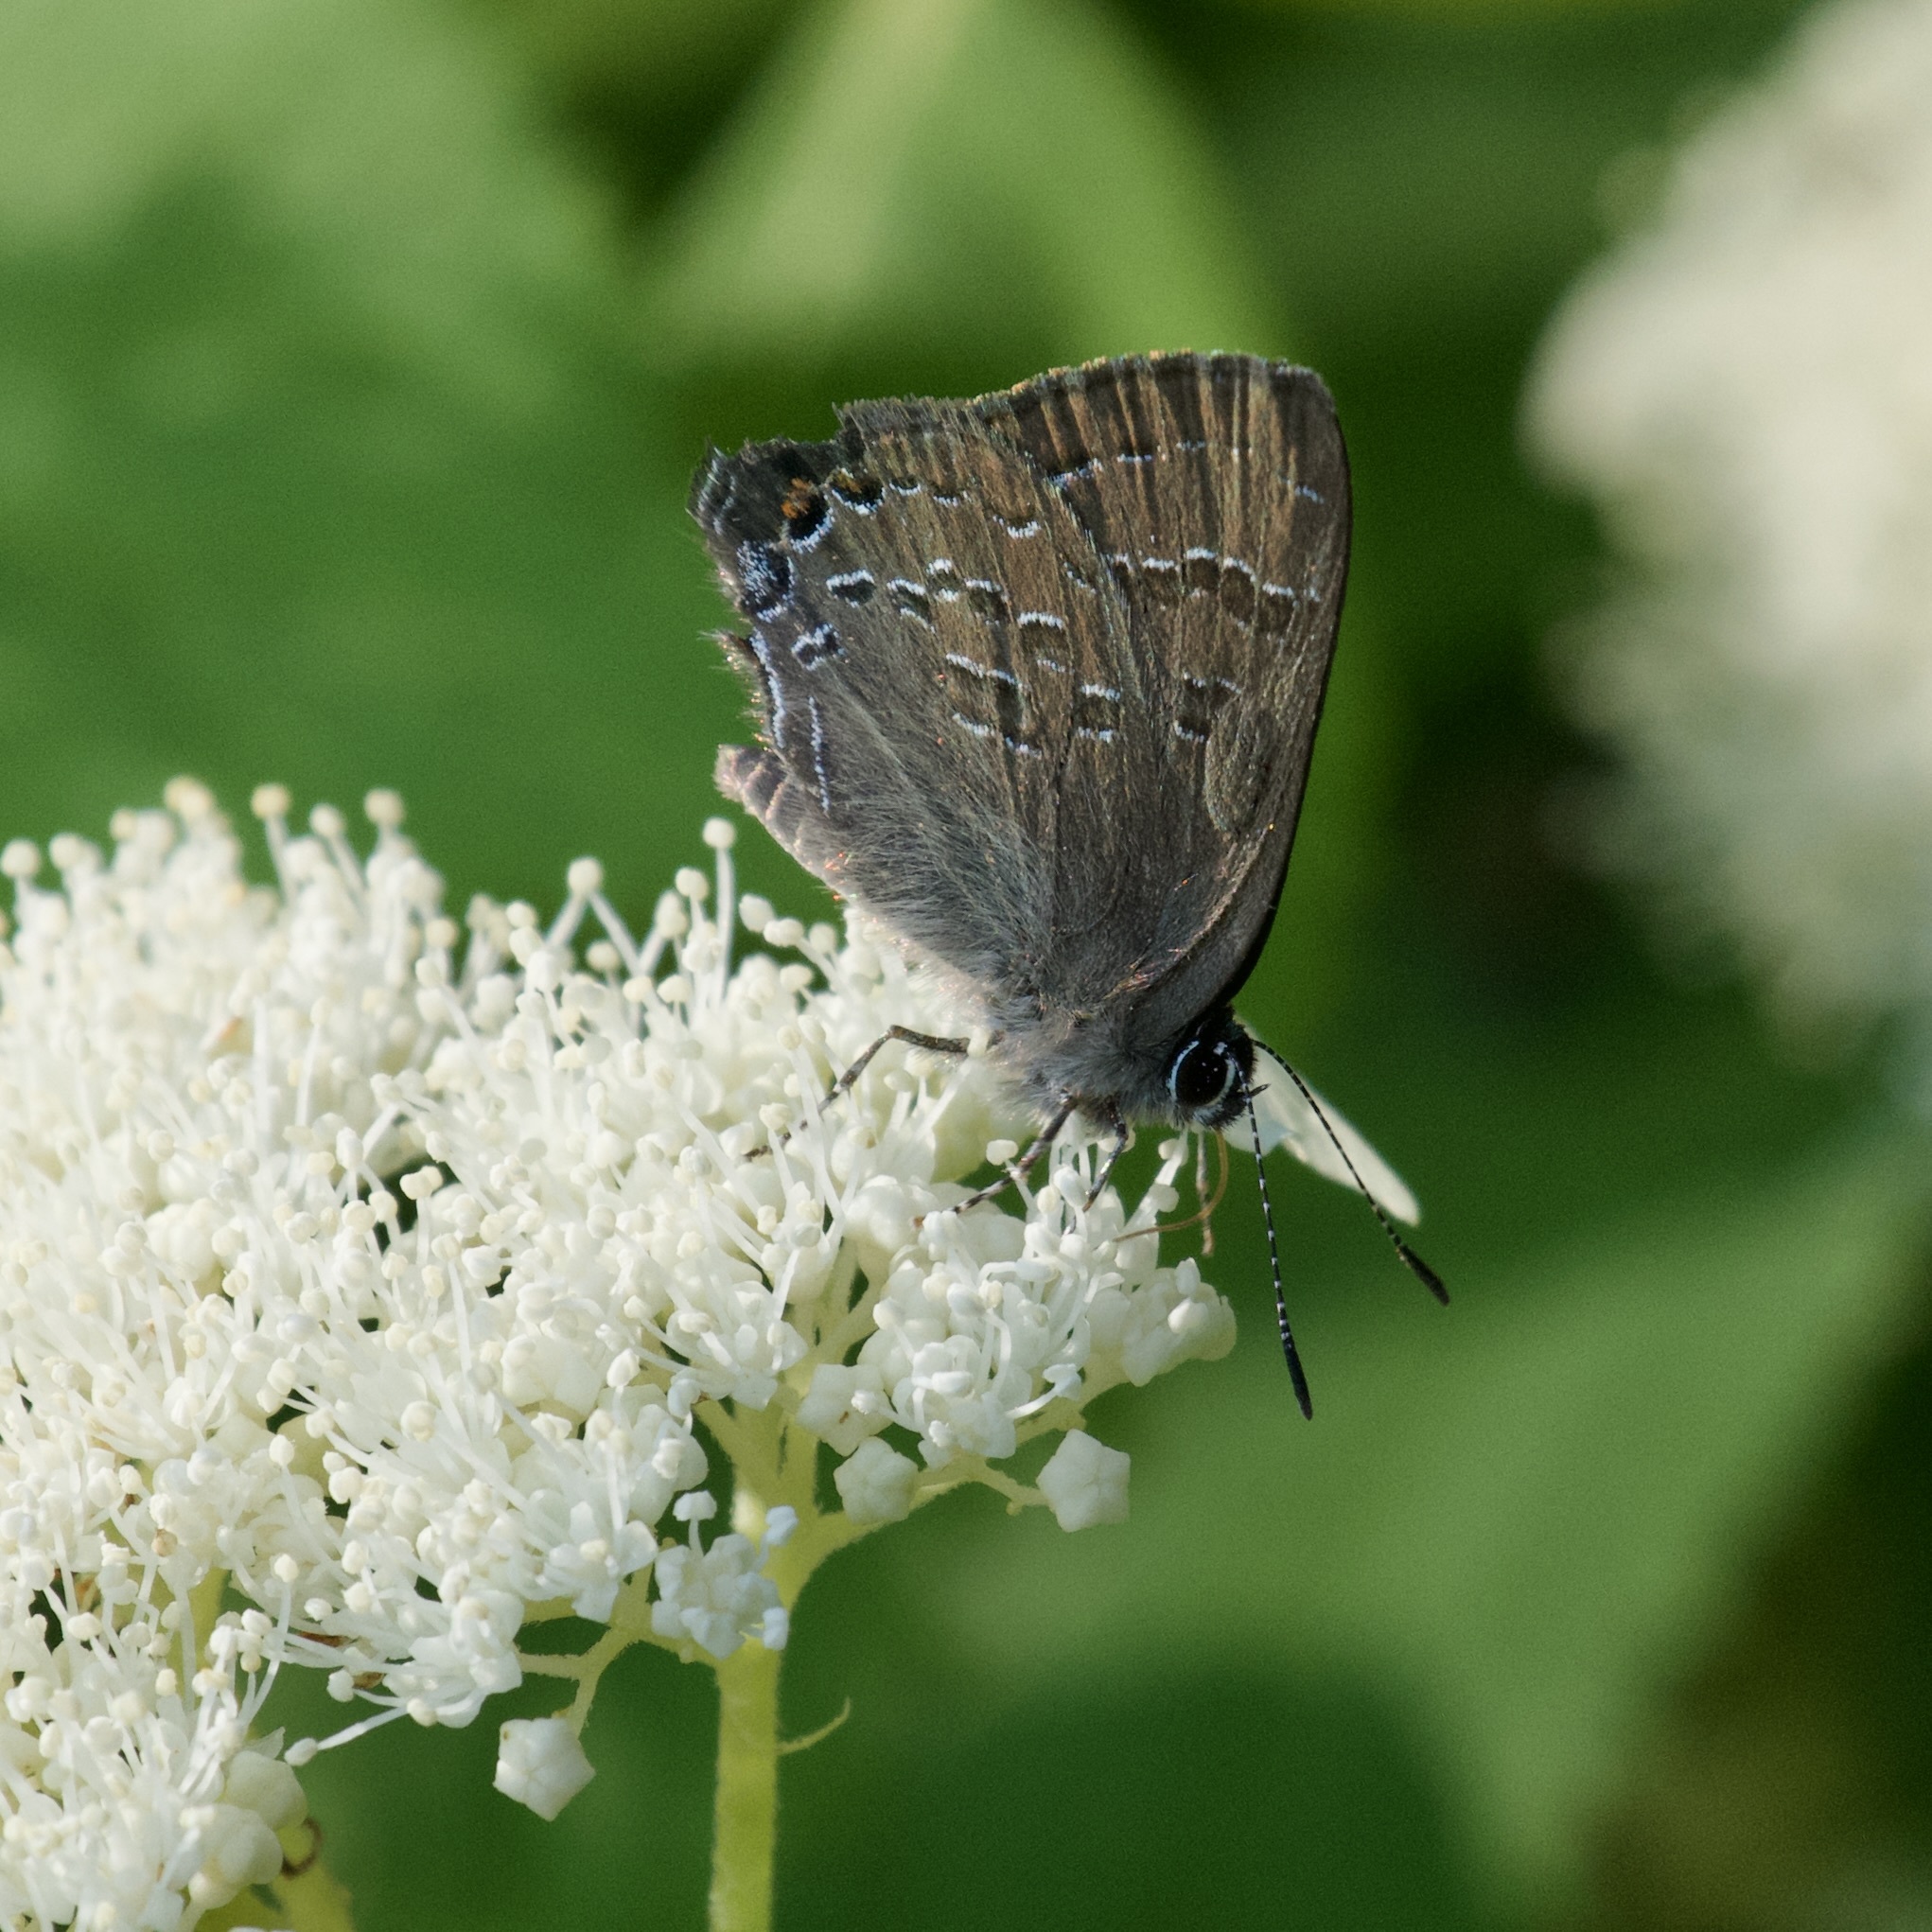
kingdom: Animalia
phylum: Arthropoda
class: Insecta
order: Lepidoptera
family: Lycaenidae
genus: Satyrium
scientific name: Satyrium calanus
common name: Banded hairstreak
